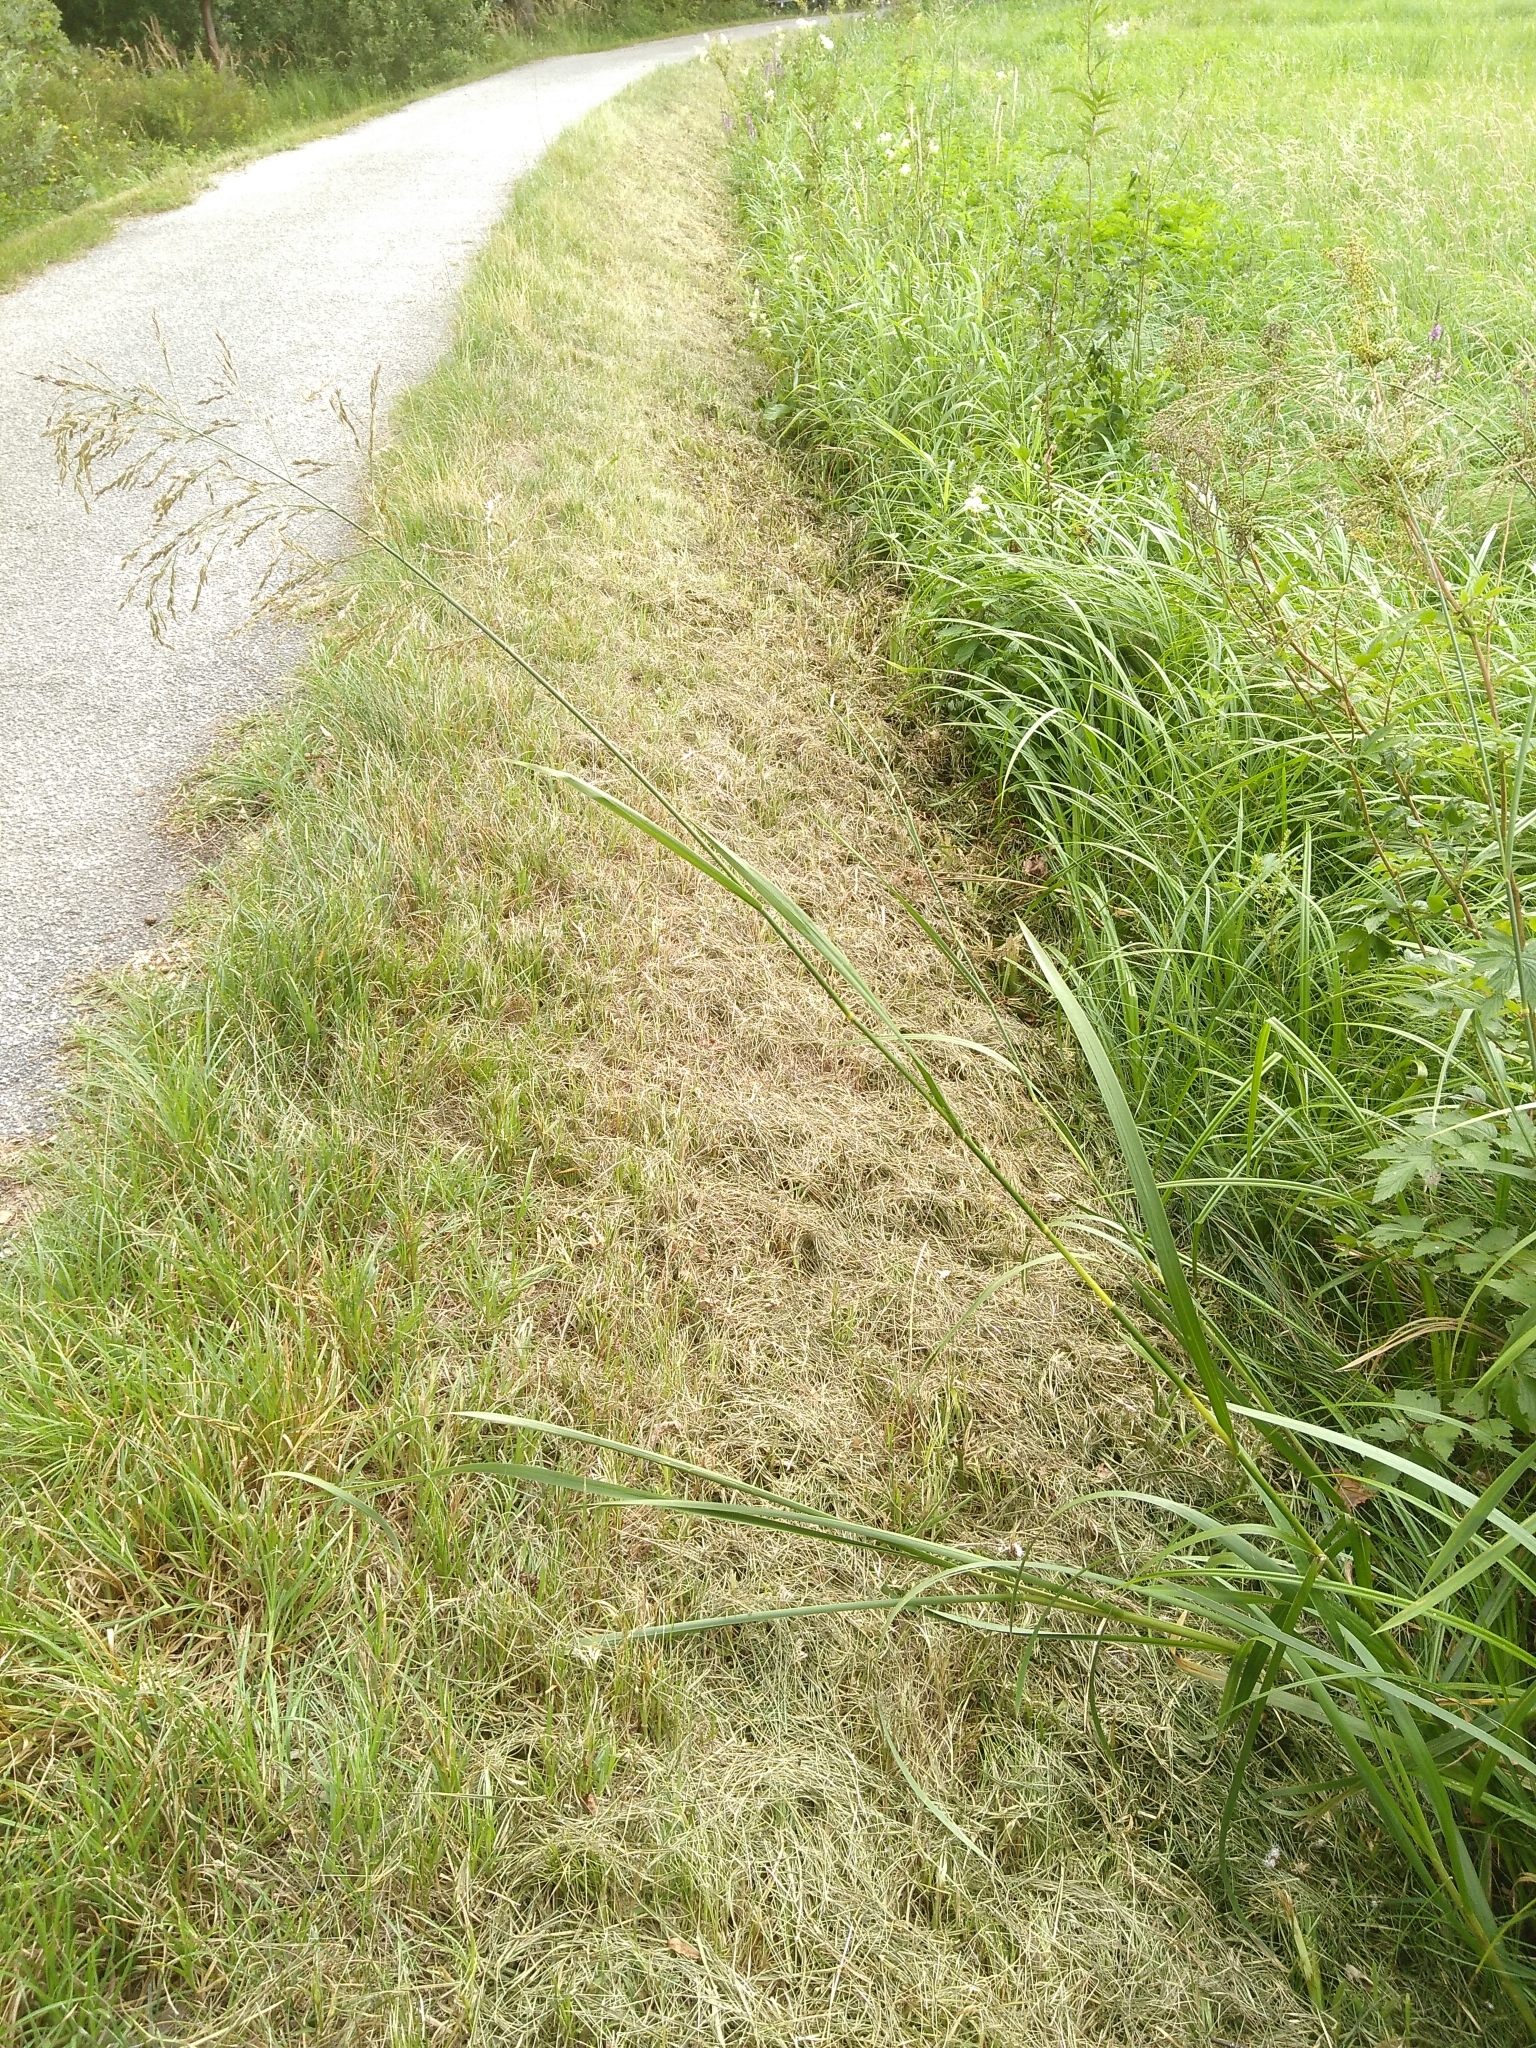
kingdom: Plantae
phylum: Tracheophyta
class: Liliopsida
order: Poales
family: Poaceae
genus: Glyceria
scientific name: Glyceria maxima
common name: Reed mannagrass
